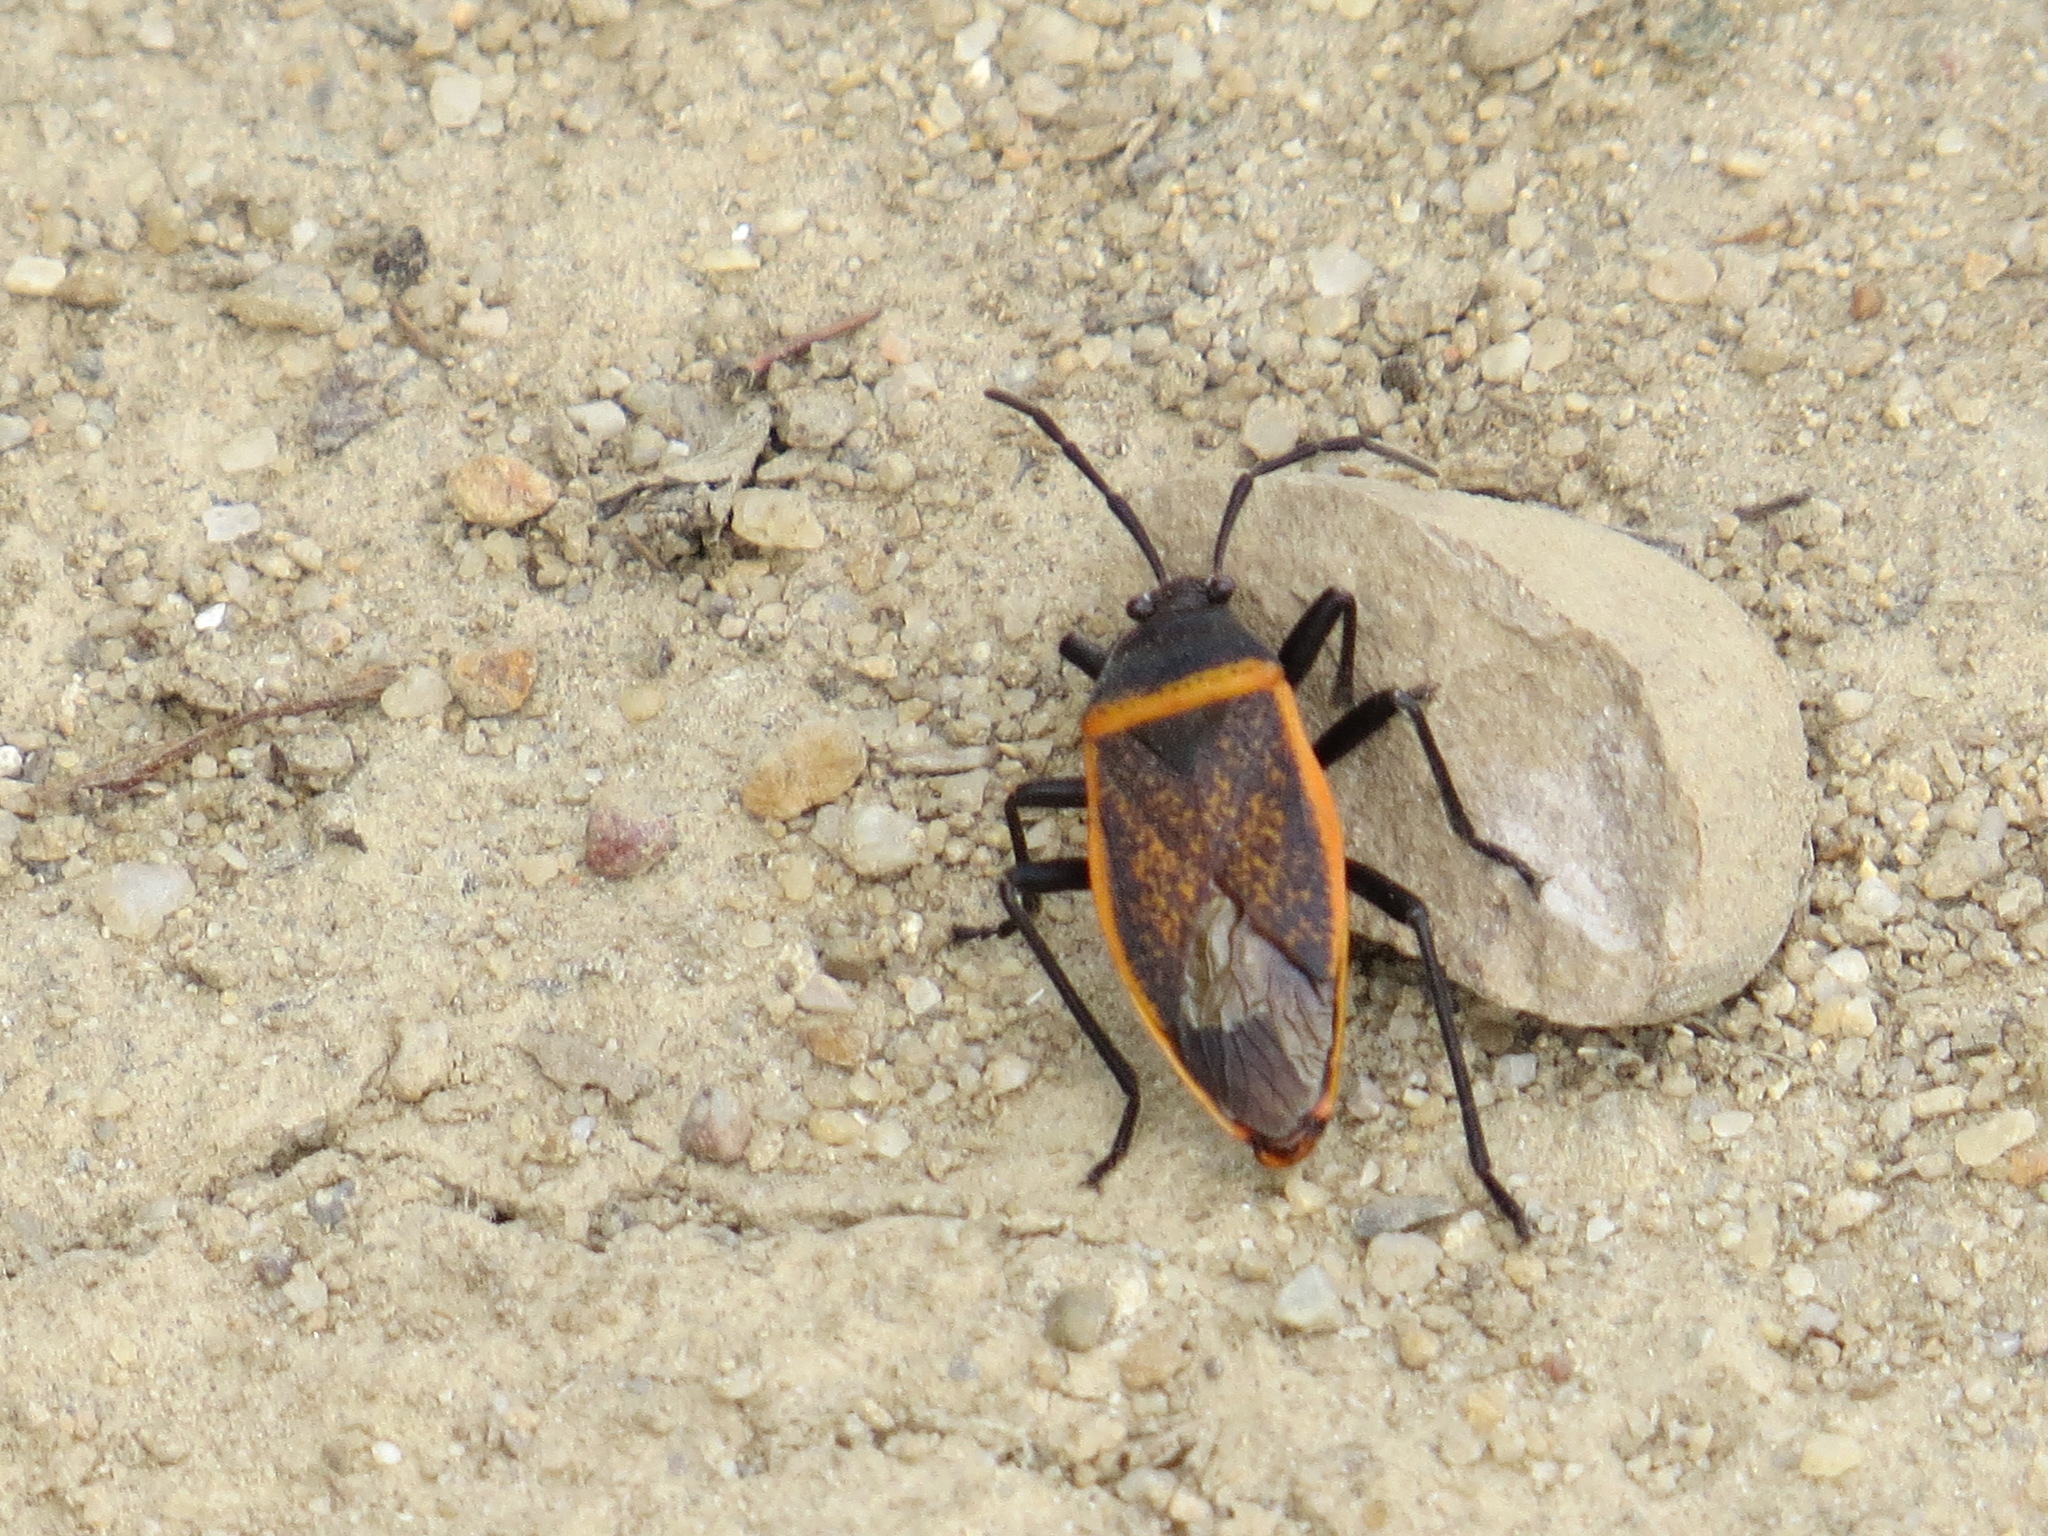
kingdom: Animalia
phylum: Arthropoda
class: Insecta
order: Hemiptera
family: Largidae
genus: Largus
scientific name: Largus californicus
